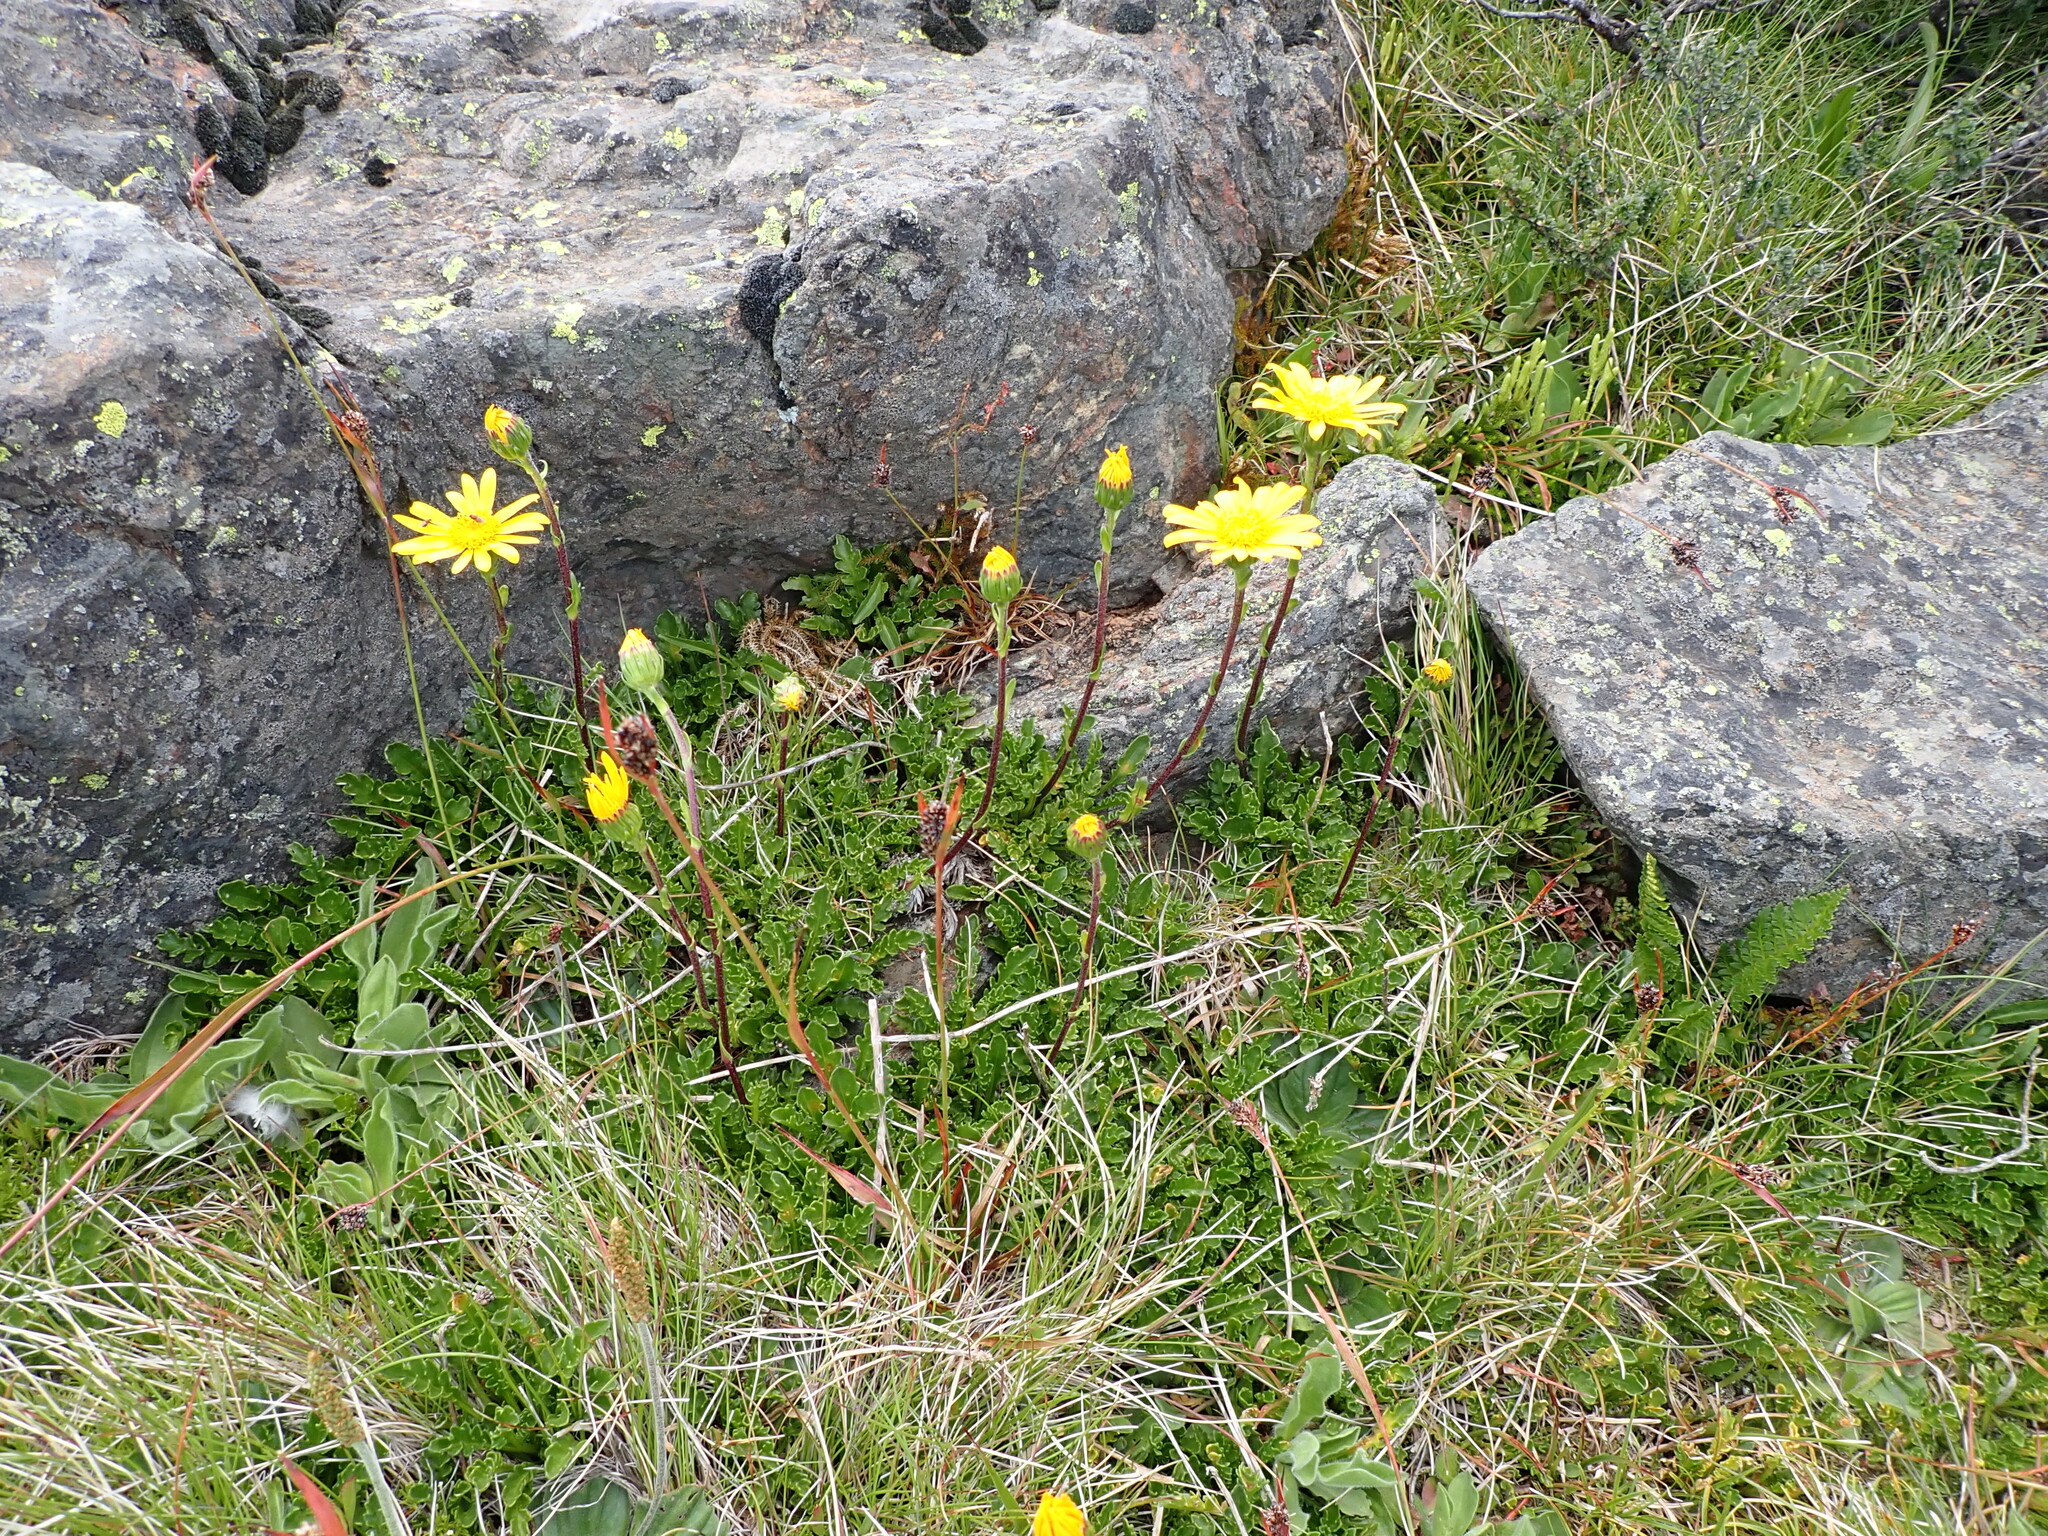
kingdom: Plantae
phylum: Tracheophyta
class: Magnoliopsida
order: Asterales
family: Asteraceae
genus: Scapisenecio
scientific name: Scapisenecio pectinatus
